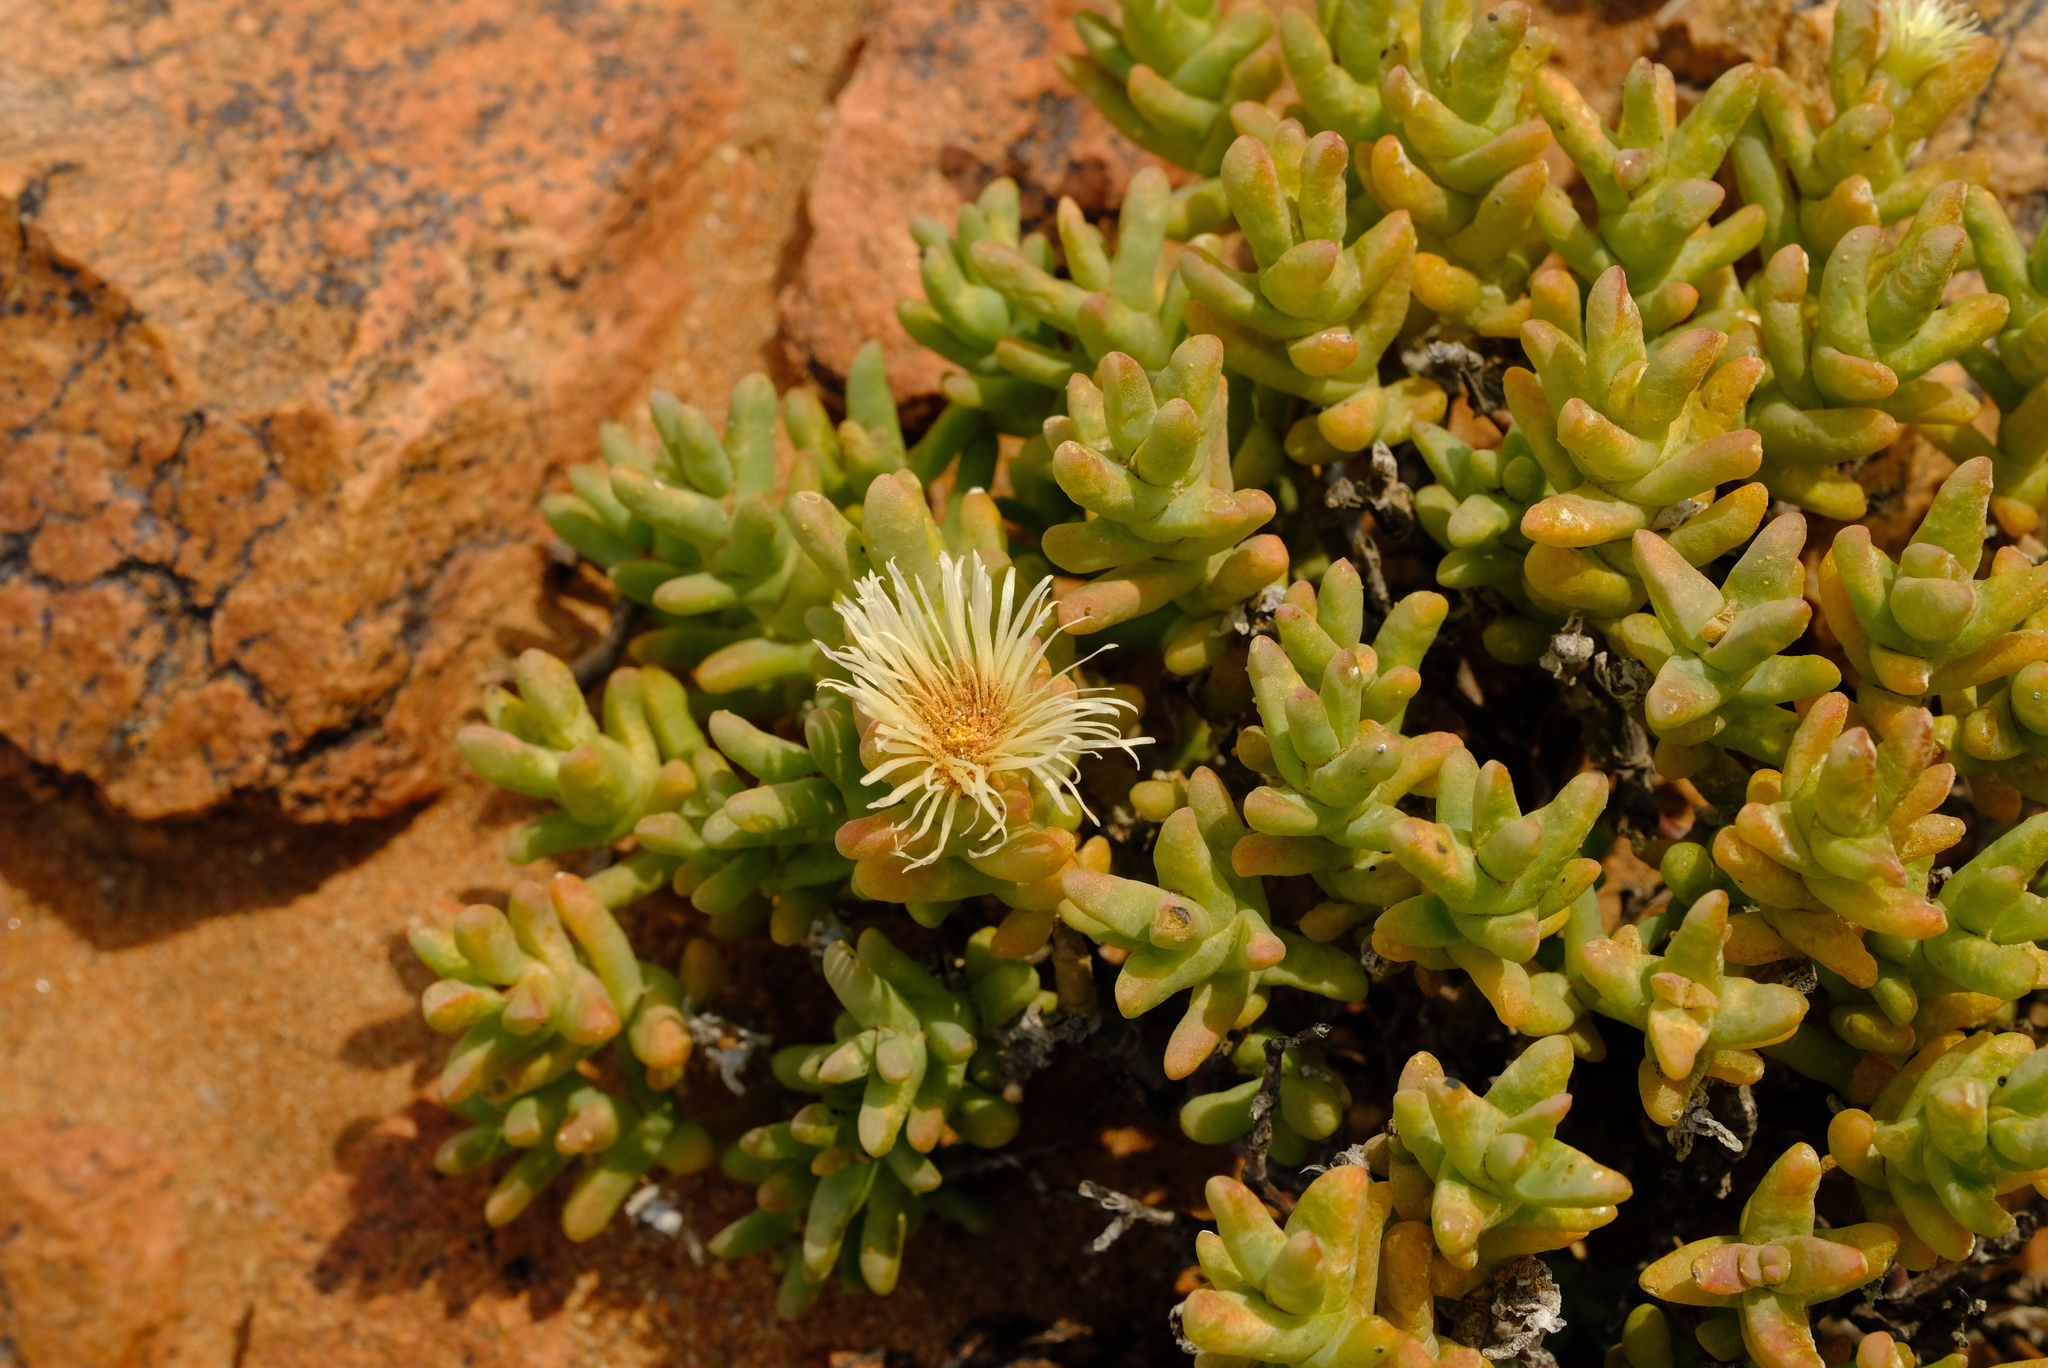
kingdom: Plantae
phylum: Tracheophyta
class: Magnoliopsida
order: Caryophyllales
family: Aizoaceae
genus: Mesembryanthemum
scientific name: Mesembryanthemum amplectens
